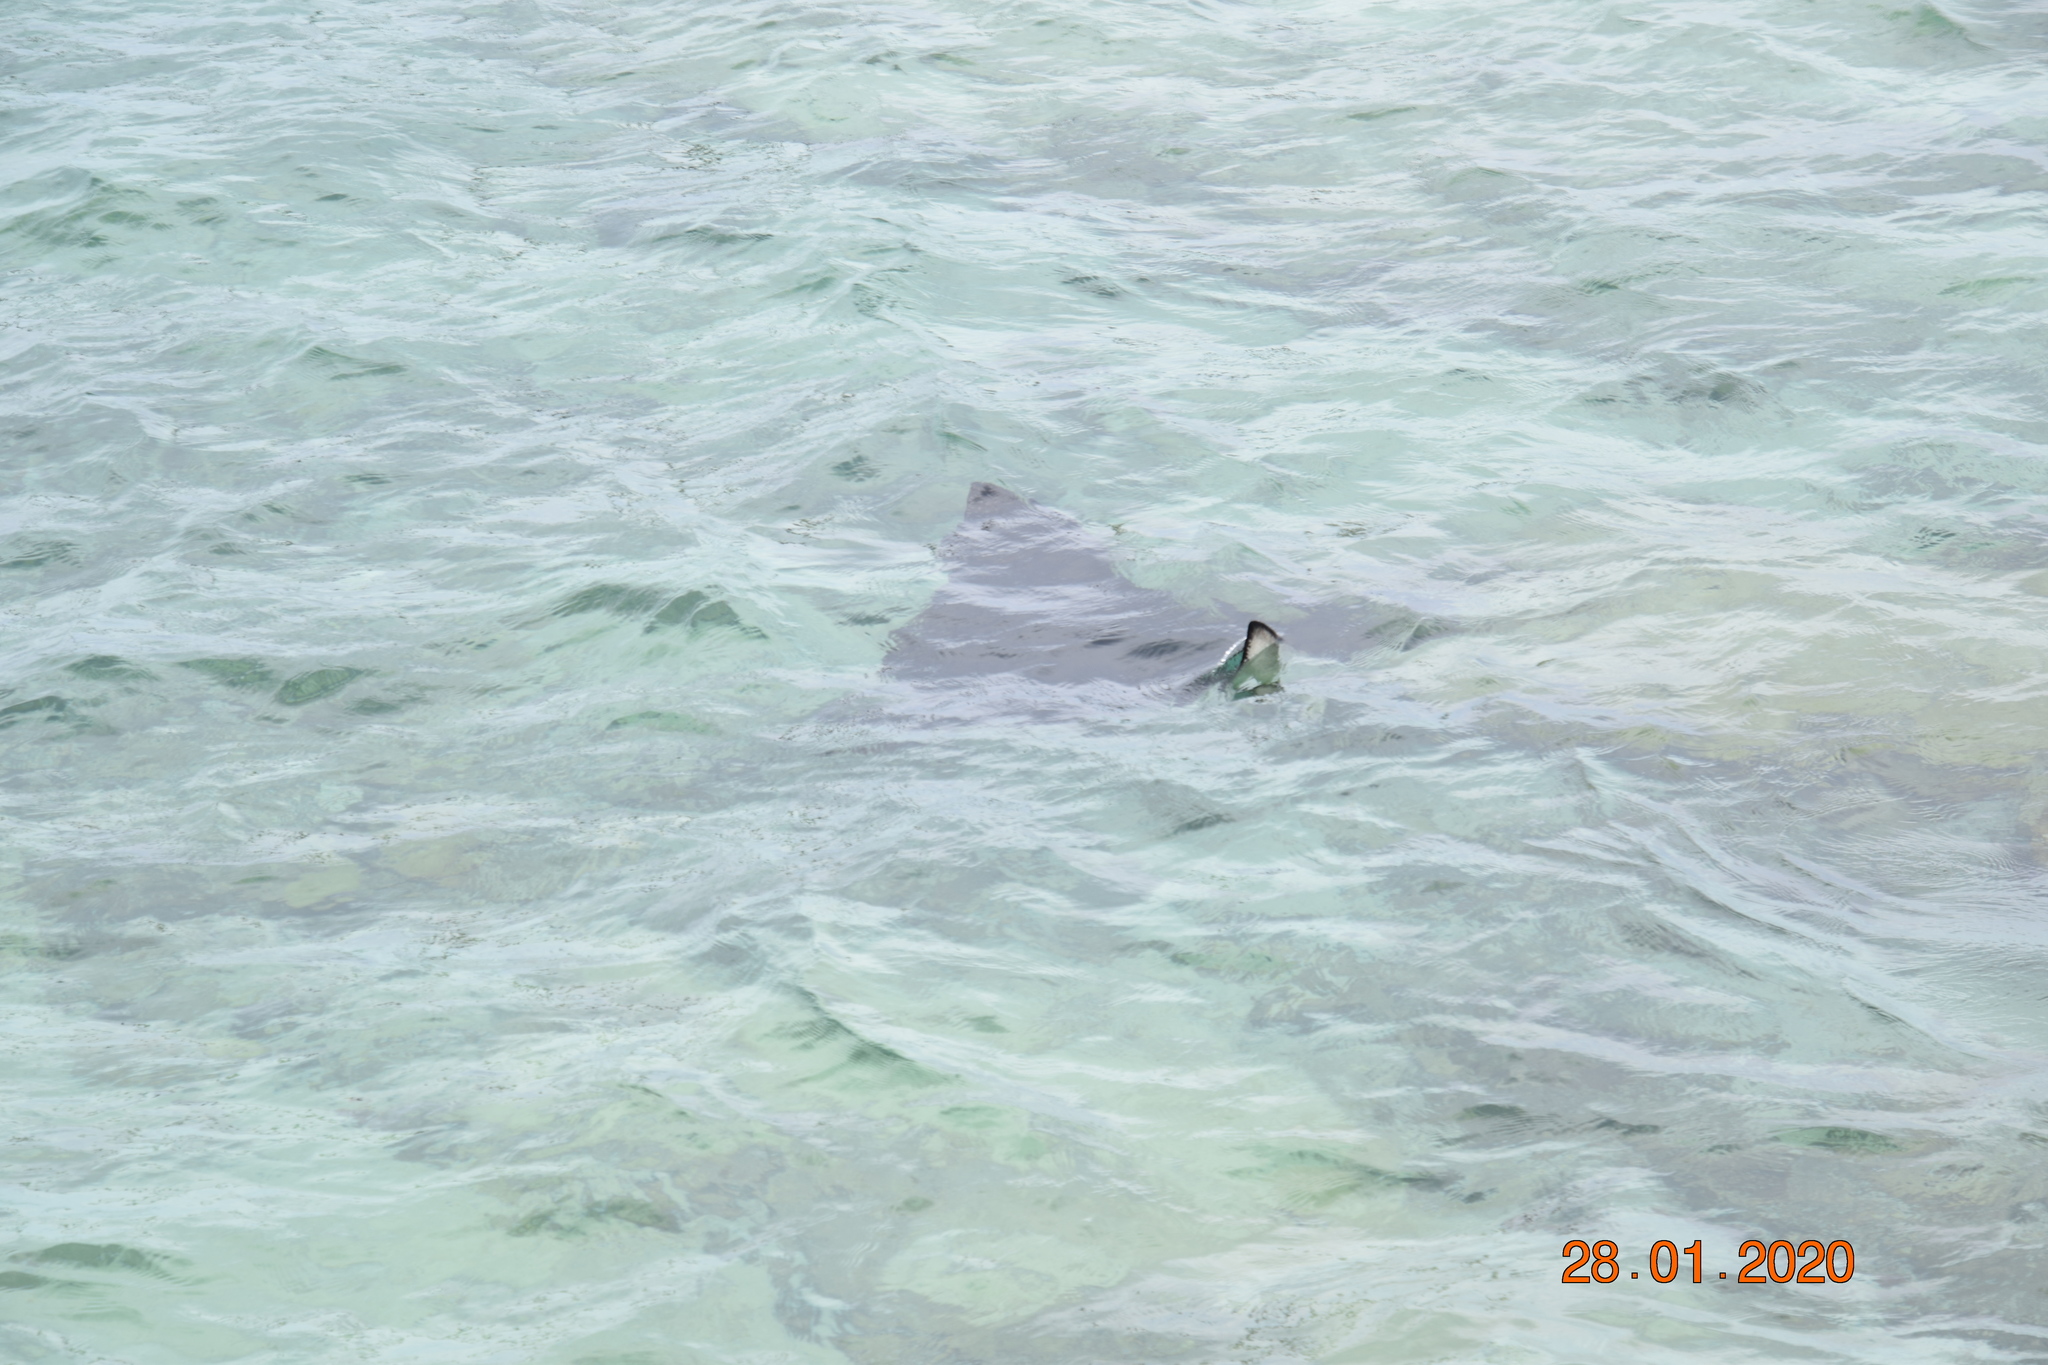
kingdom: Animalia
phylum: Chordata
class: Elasmobranchii
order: Myliobatiformes
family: Myliobatidae
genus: Aetobatus
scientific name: Aetobatus ocellatus
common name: Ocellated eagle ray
